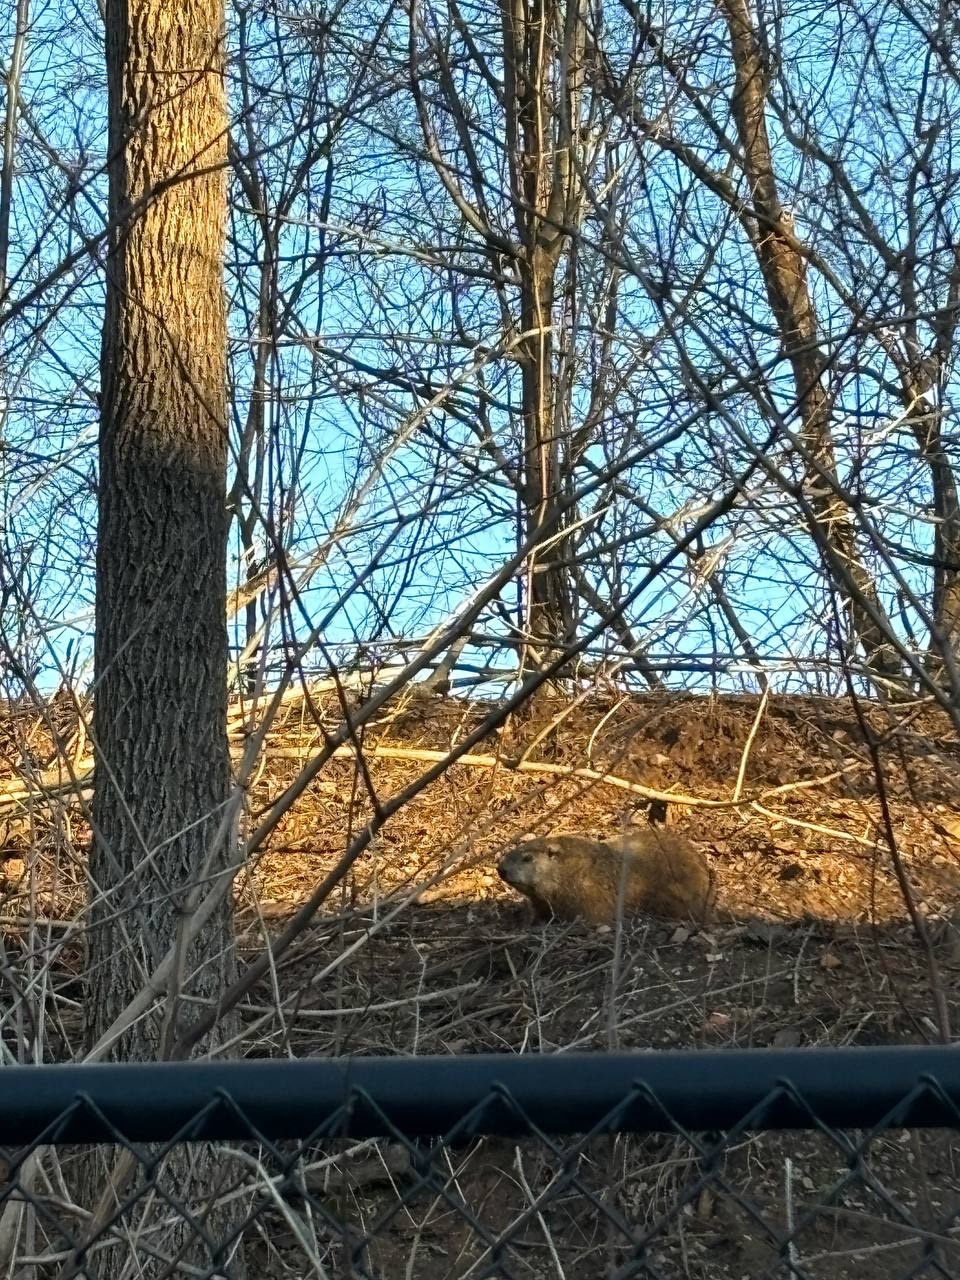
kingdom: Animalia
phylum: Chordata
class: Mammalia
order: Rodentia
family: Sciuridae
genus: Marmota
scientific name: Marmota monax
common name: Groundhog
